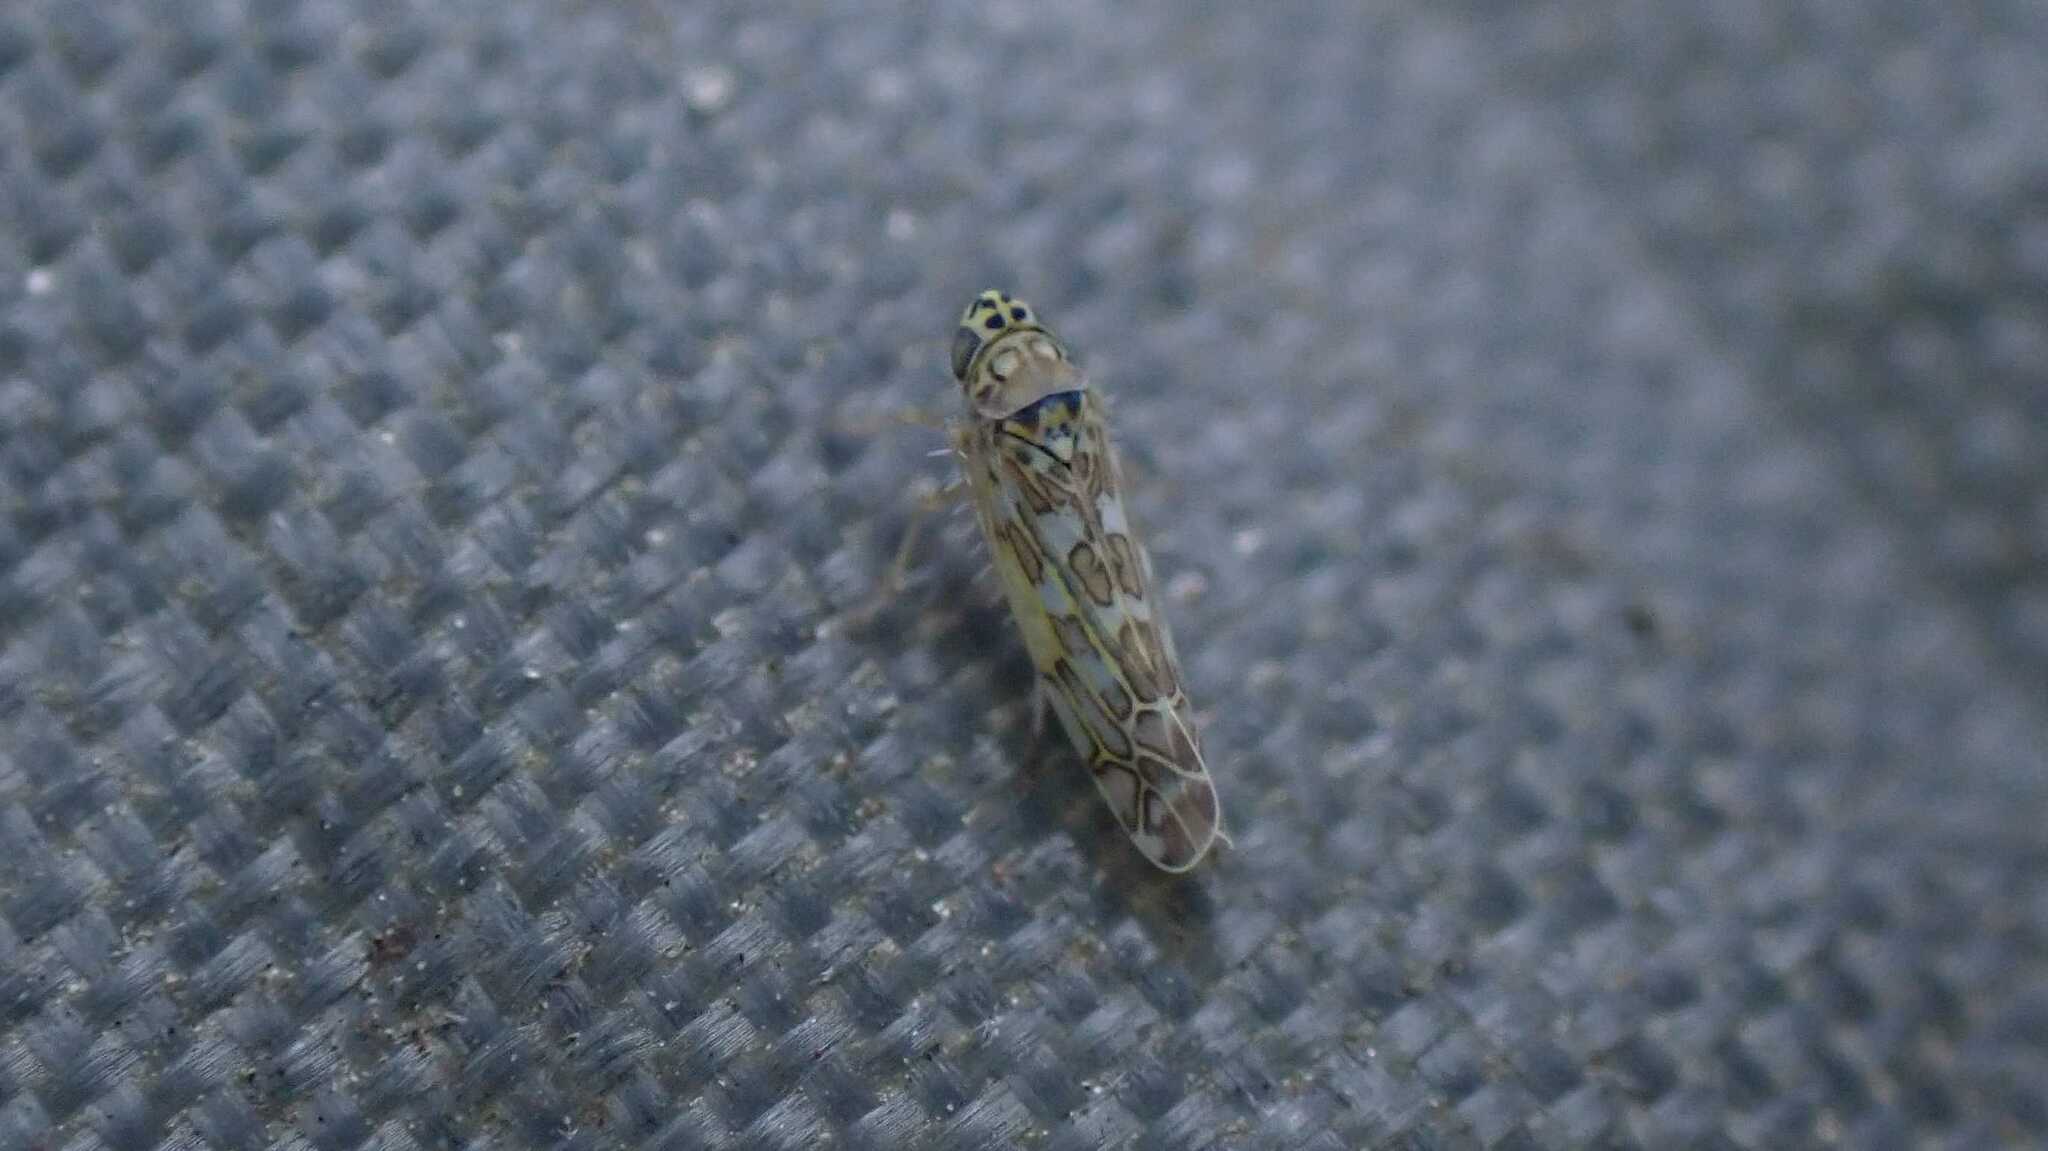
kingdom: Animalia
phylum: Arthropoda
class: Insecta
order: Hemiptera
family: Cicadellidae
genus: Eupteryx
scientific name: Eupteryx decemnotata
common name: Ligurian leafhopper
